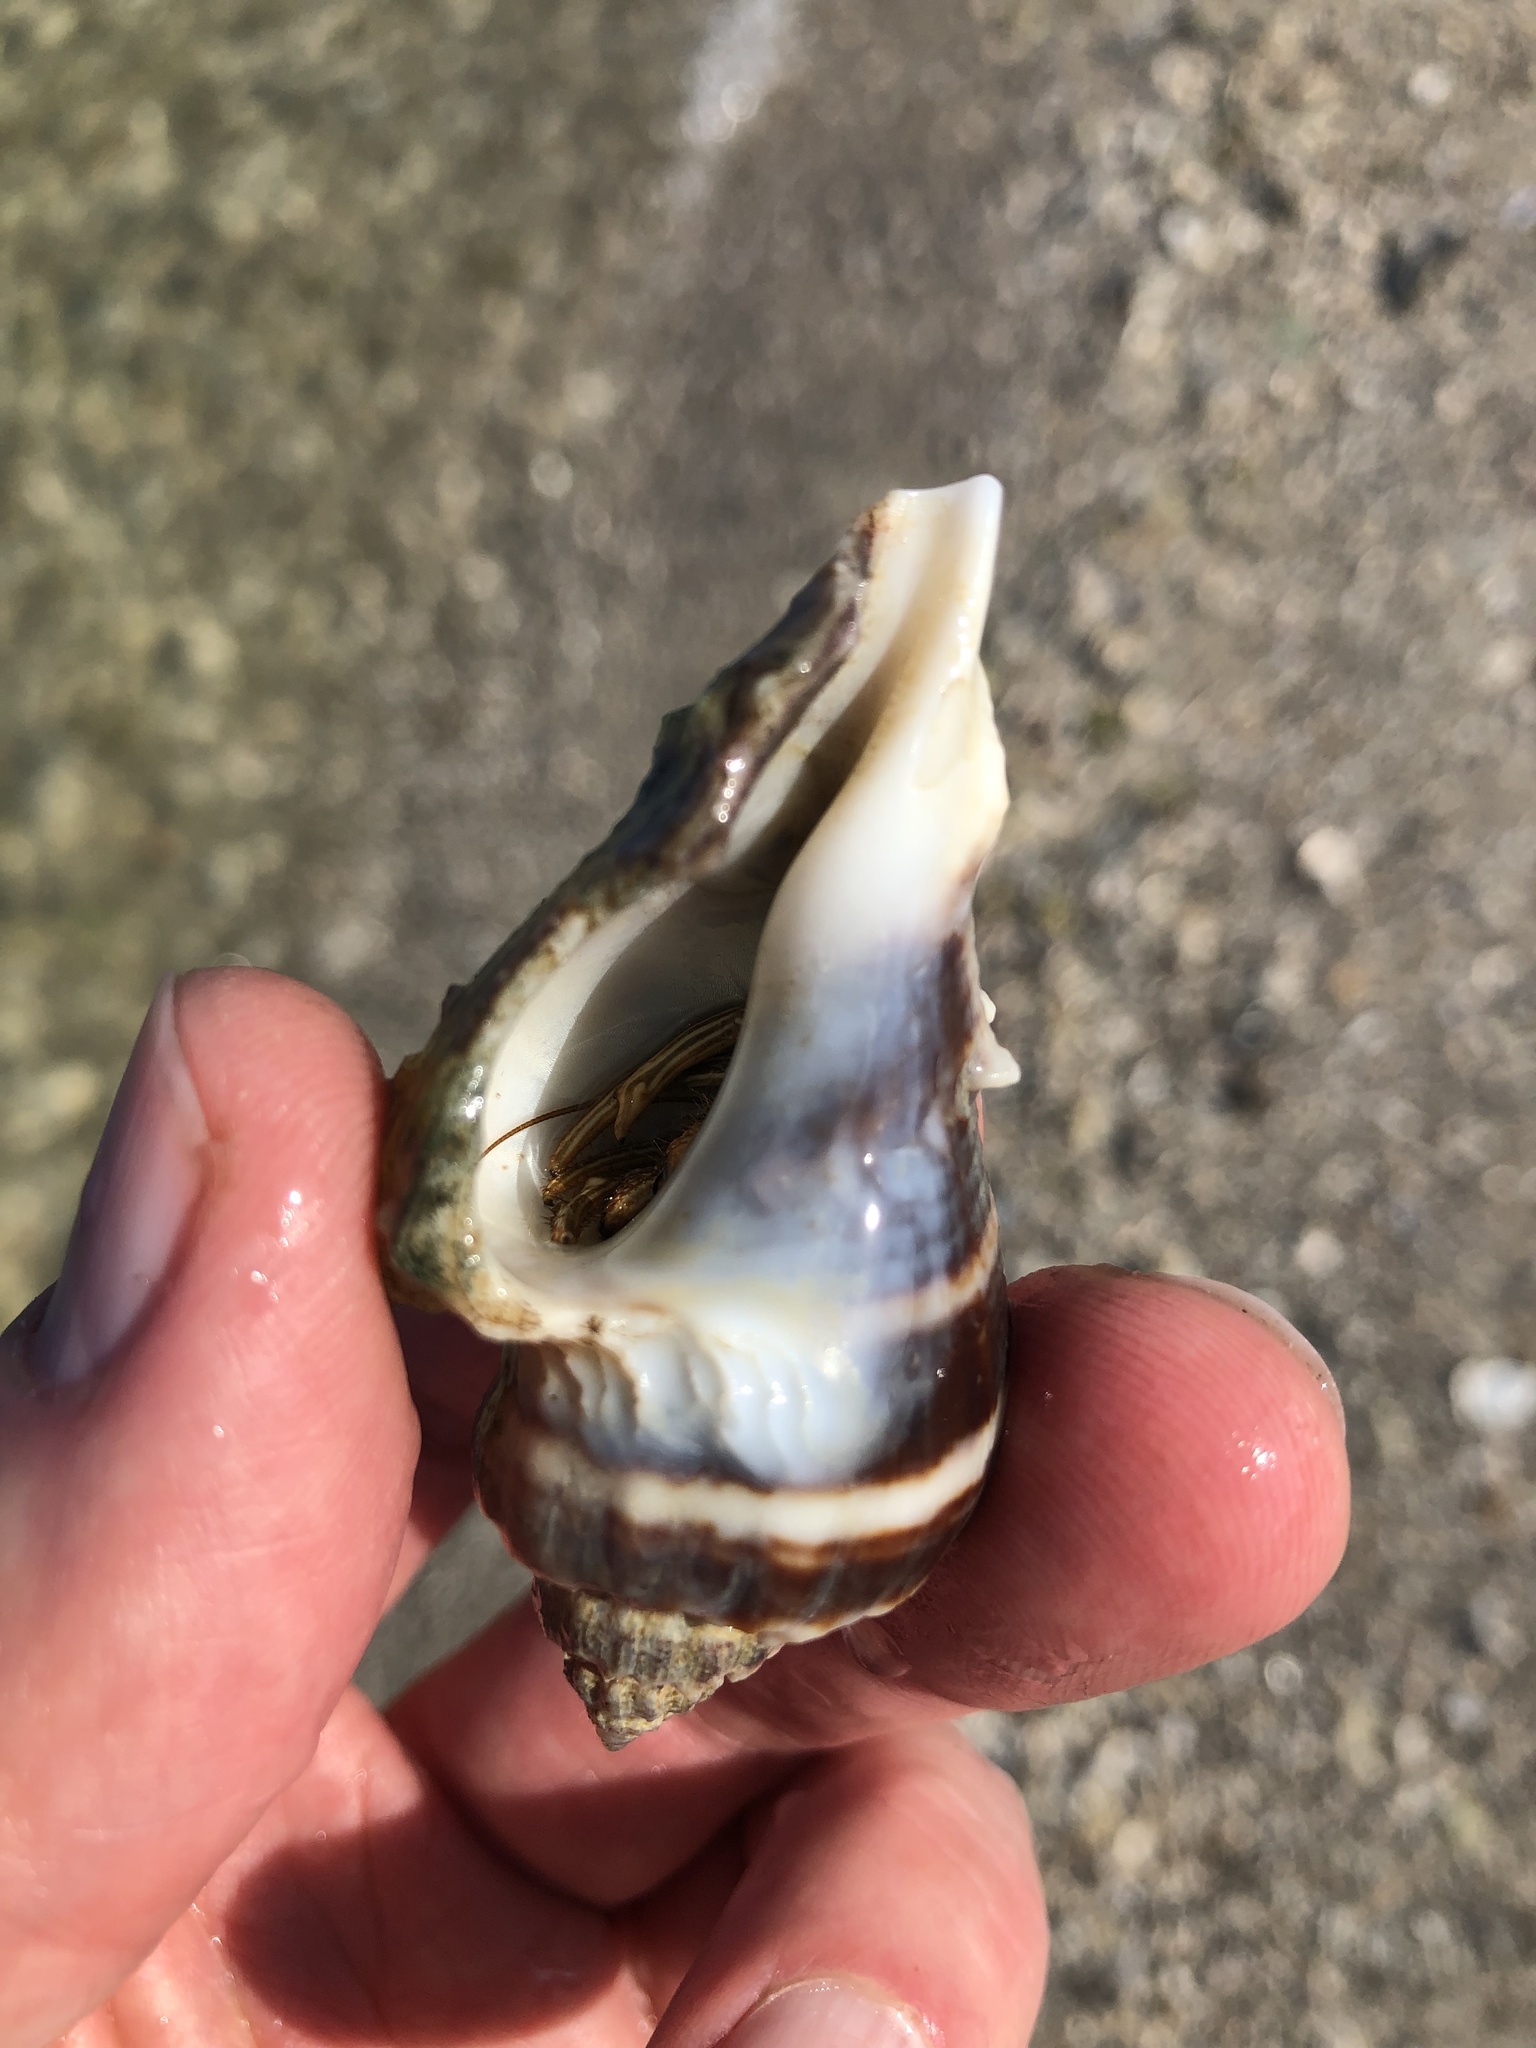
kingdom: Animalia
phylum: Mollusca
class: Gastropoda
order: Neogastropoda
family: Melongenidae
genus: Melongena
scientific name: Melongena corona
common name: American crown conch
